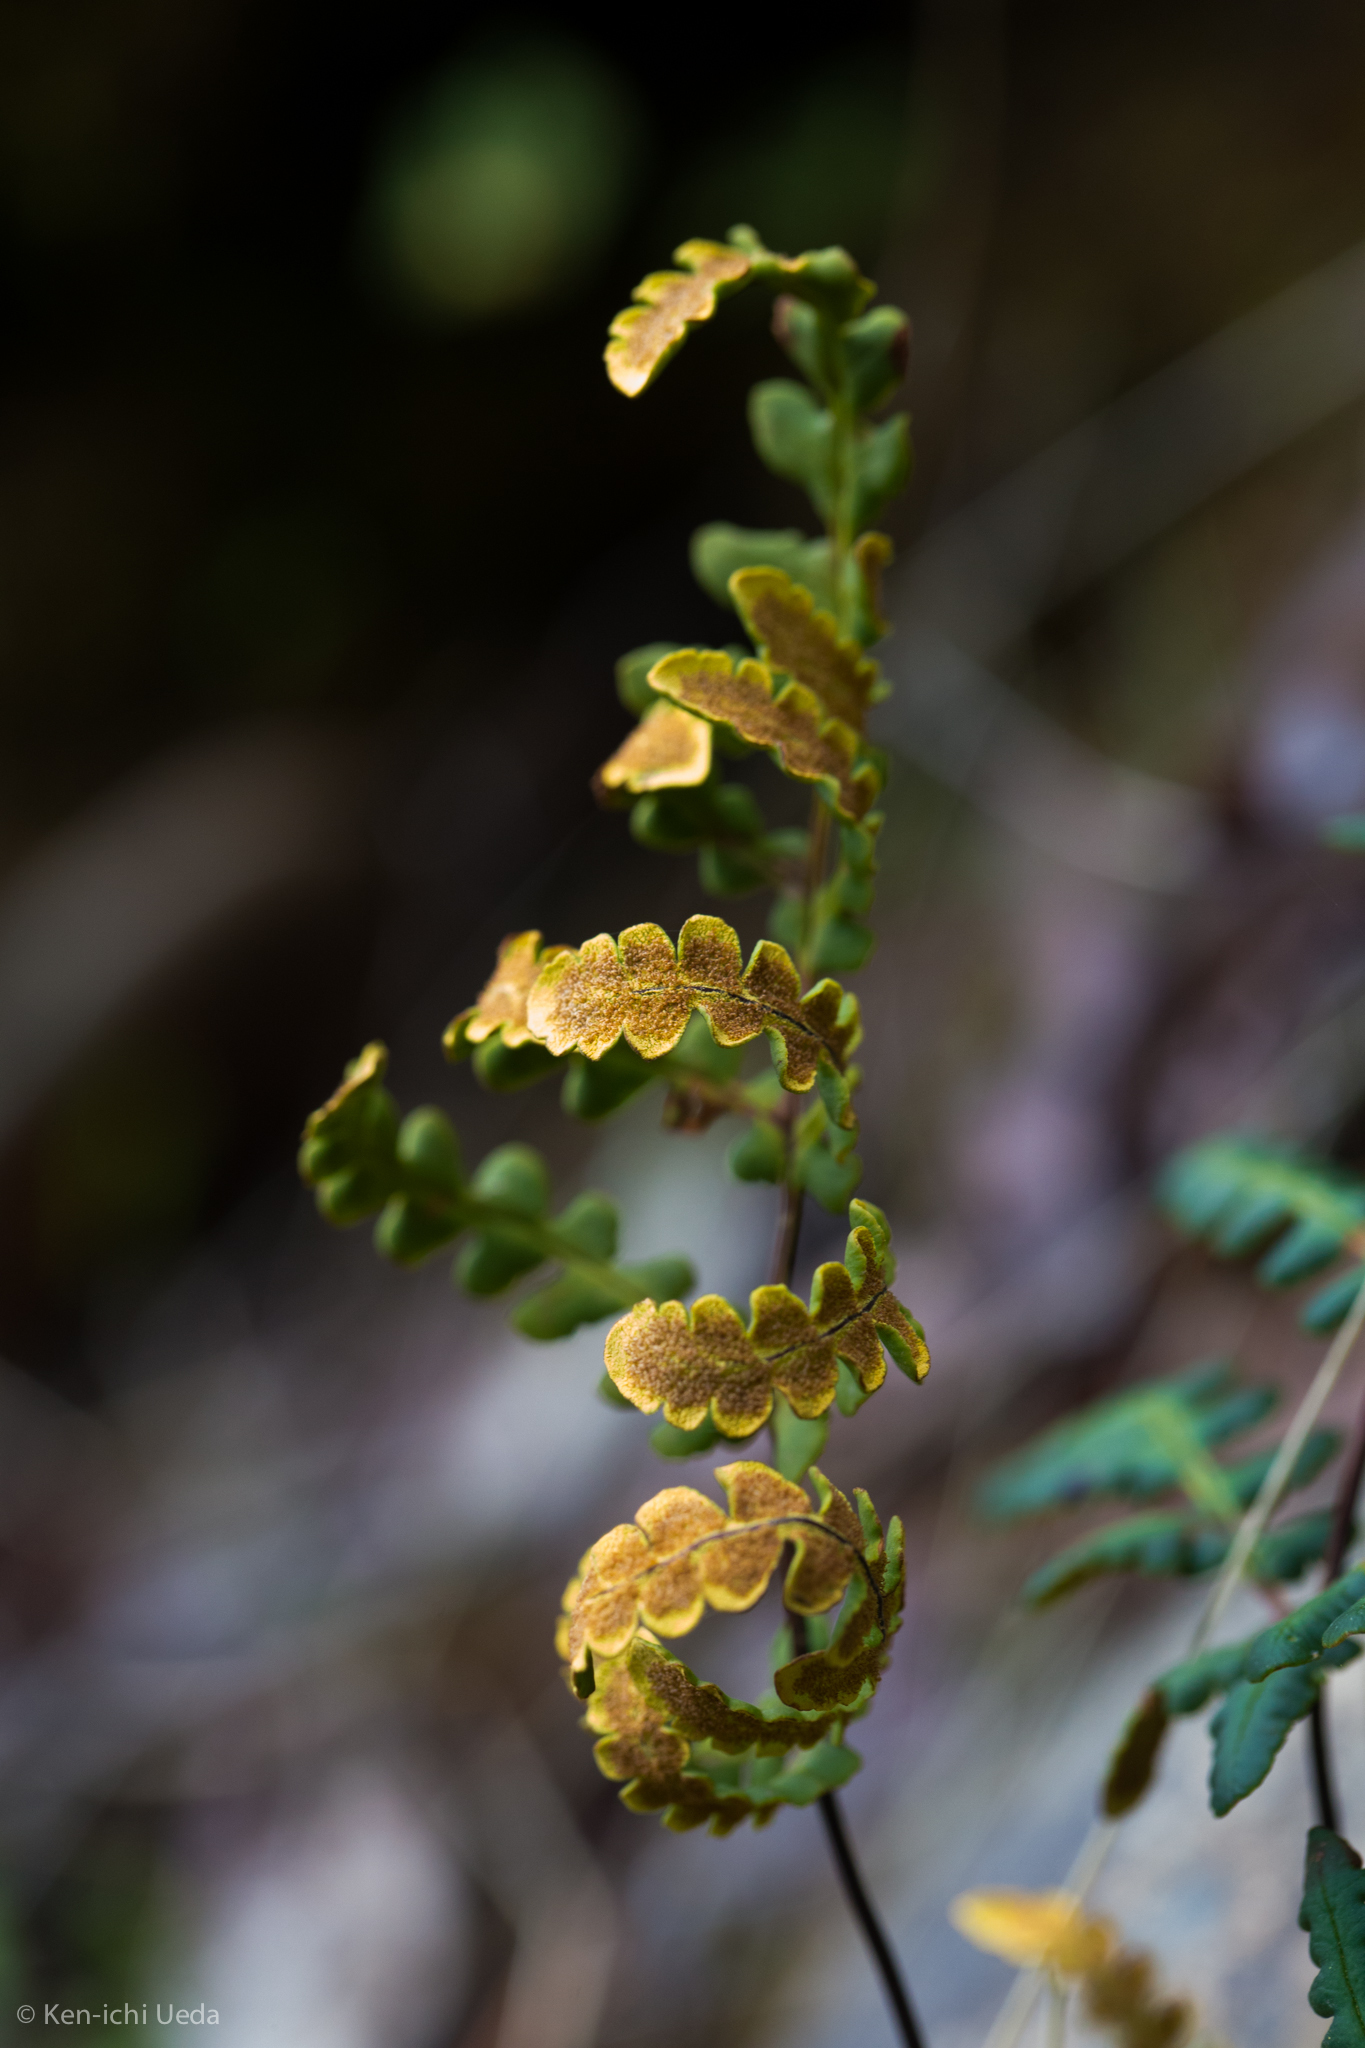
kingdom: Plantae
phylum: Tracheophyta
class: Polypodiopsida
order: Polypodiales
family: Pteridaceae
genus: Pentagramma
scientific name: Pentagramma triangularis
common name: Gold fern
